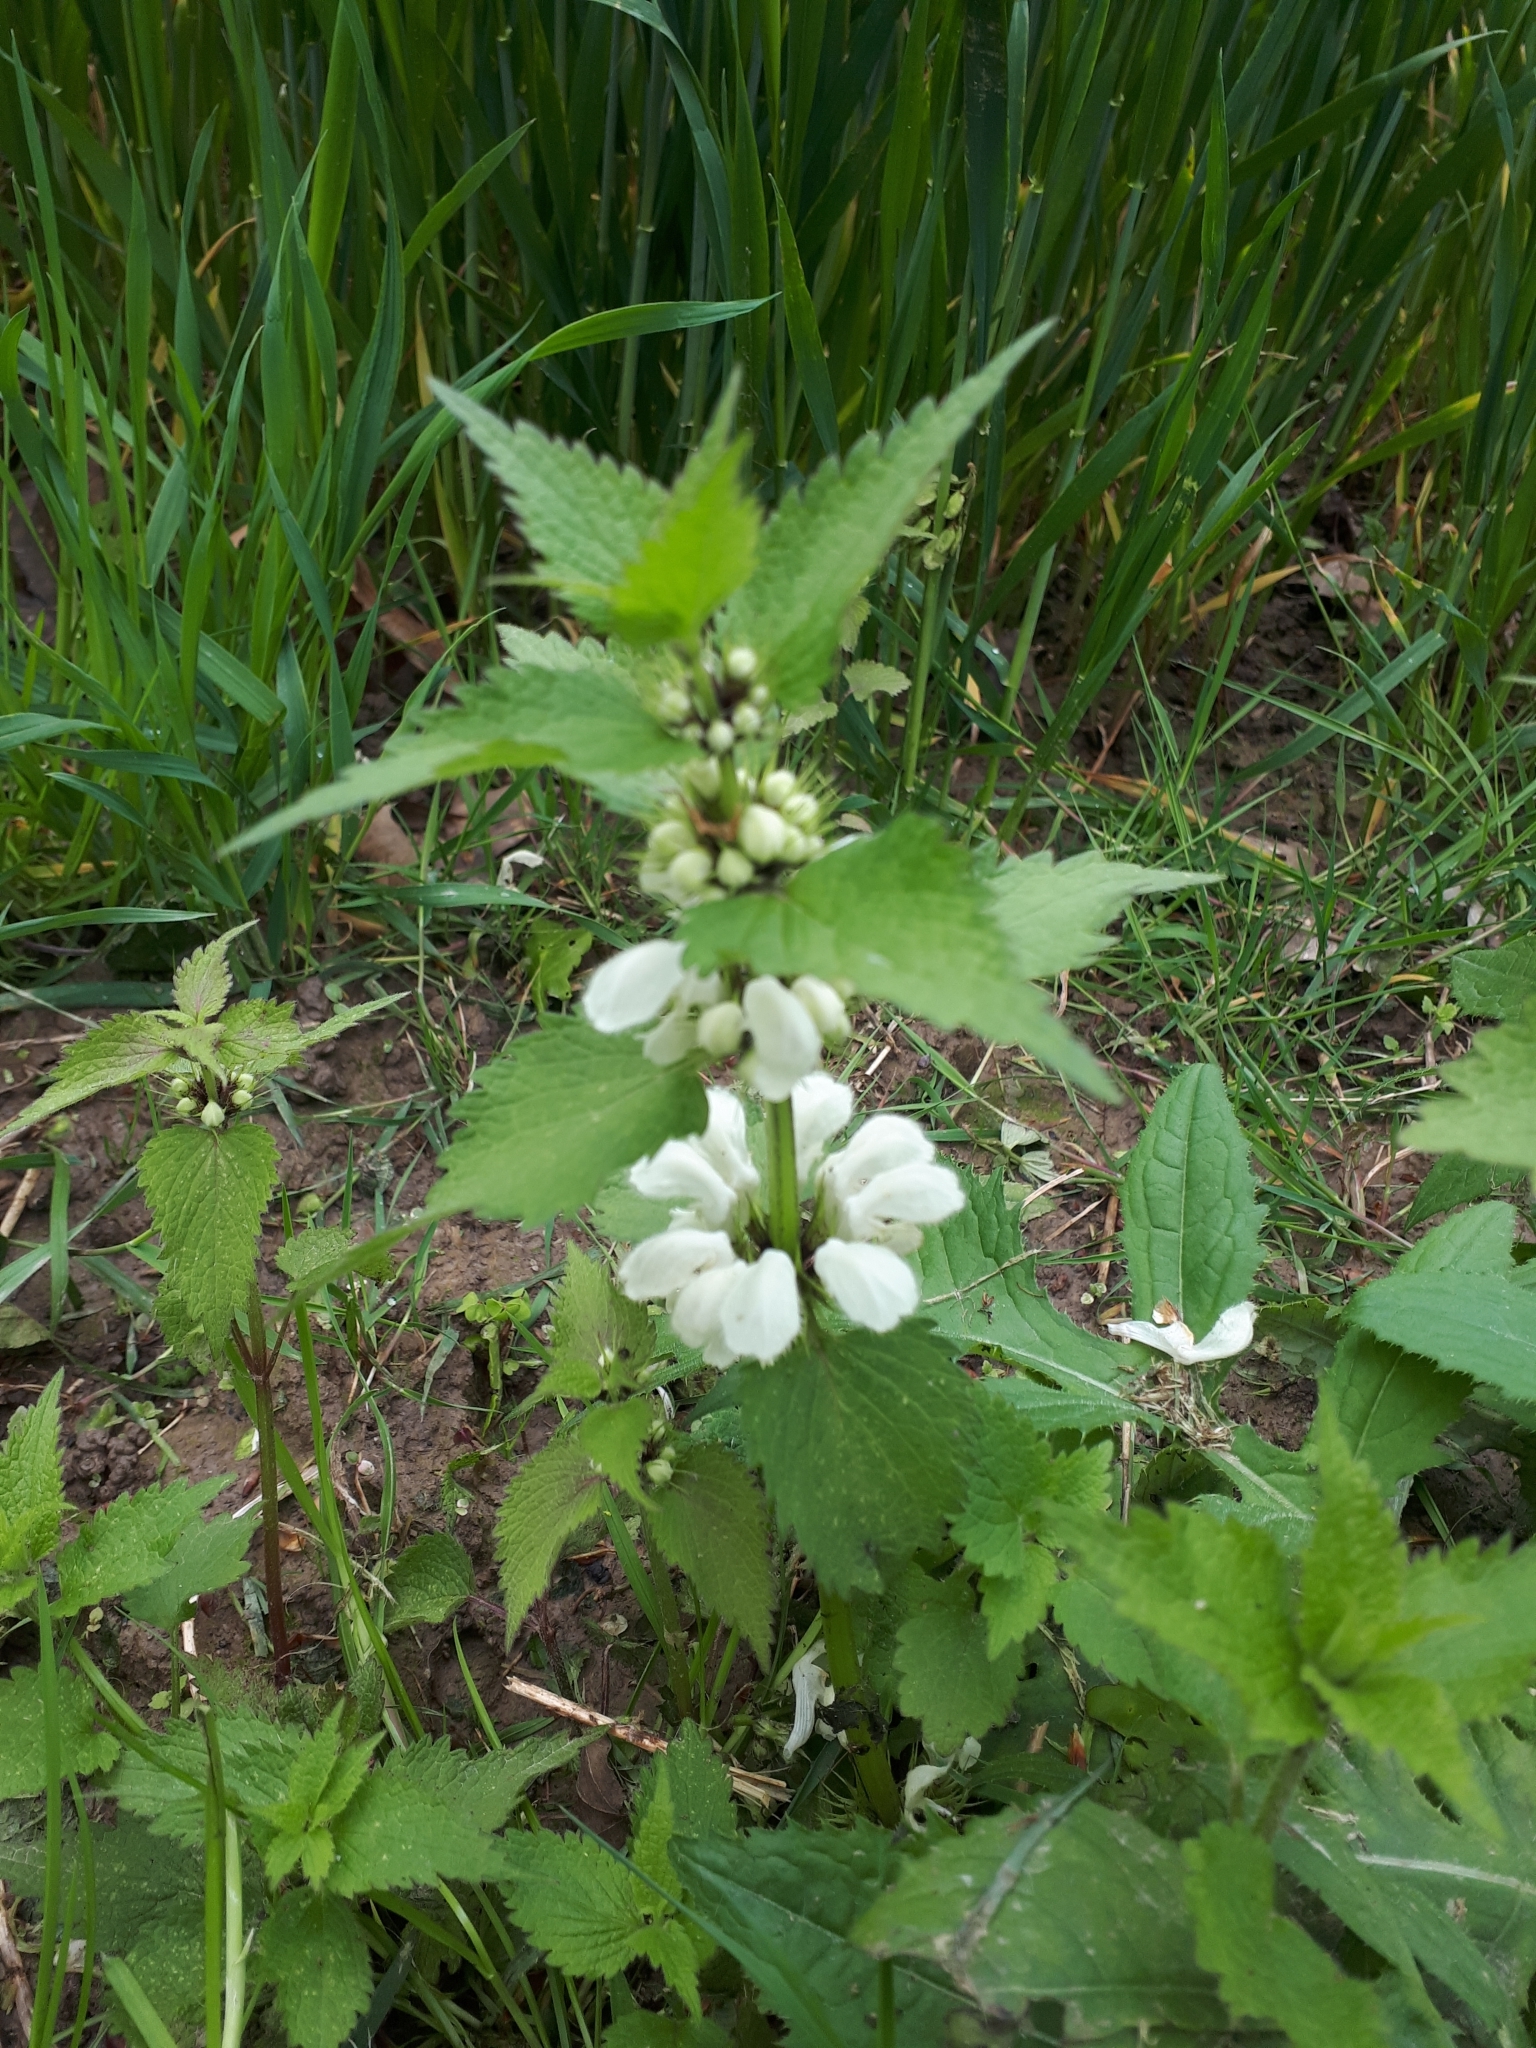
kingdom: Plantae
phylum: Tracheophyta
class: Magnoliopsida
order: Lamiales
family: Lamiaceae
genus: Lamium
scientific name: Lamium album
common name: White dead-nettle
